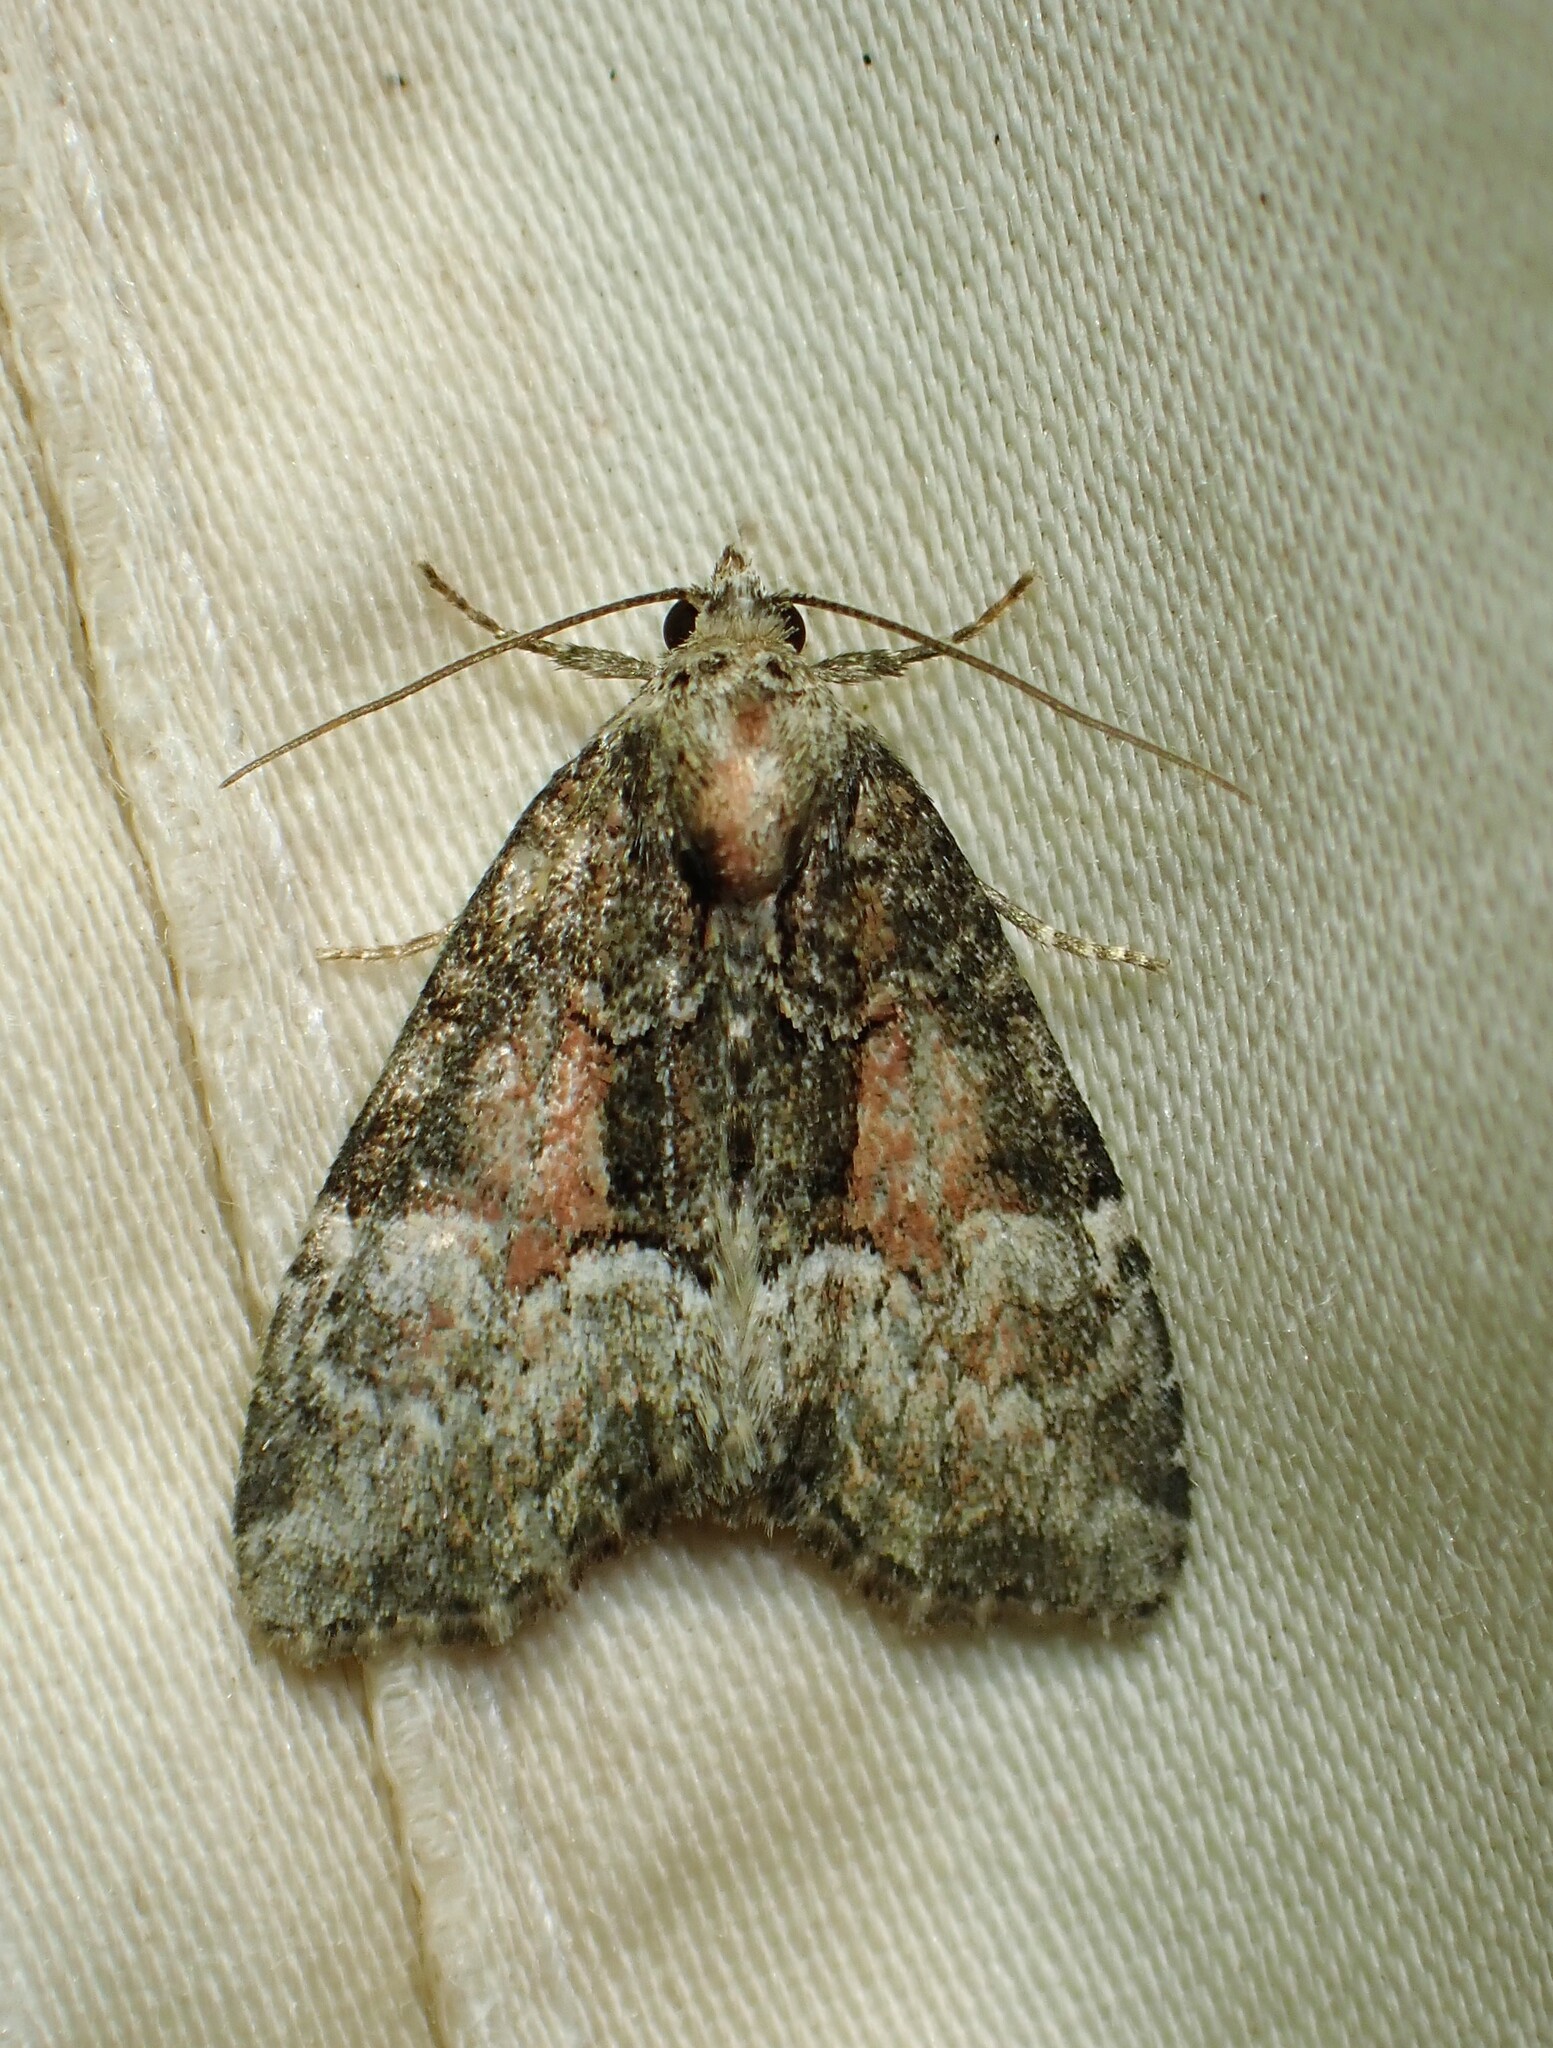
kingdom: Animalia
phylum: Arthropoda
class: Insecta
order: Lepidoptera
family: Noctuidae
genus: Neoligia
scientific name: Neoligia subjuncta
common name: Connected brocade
